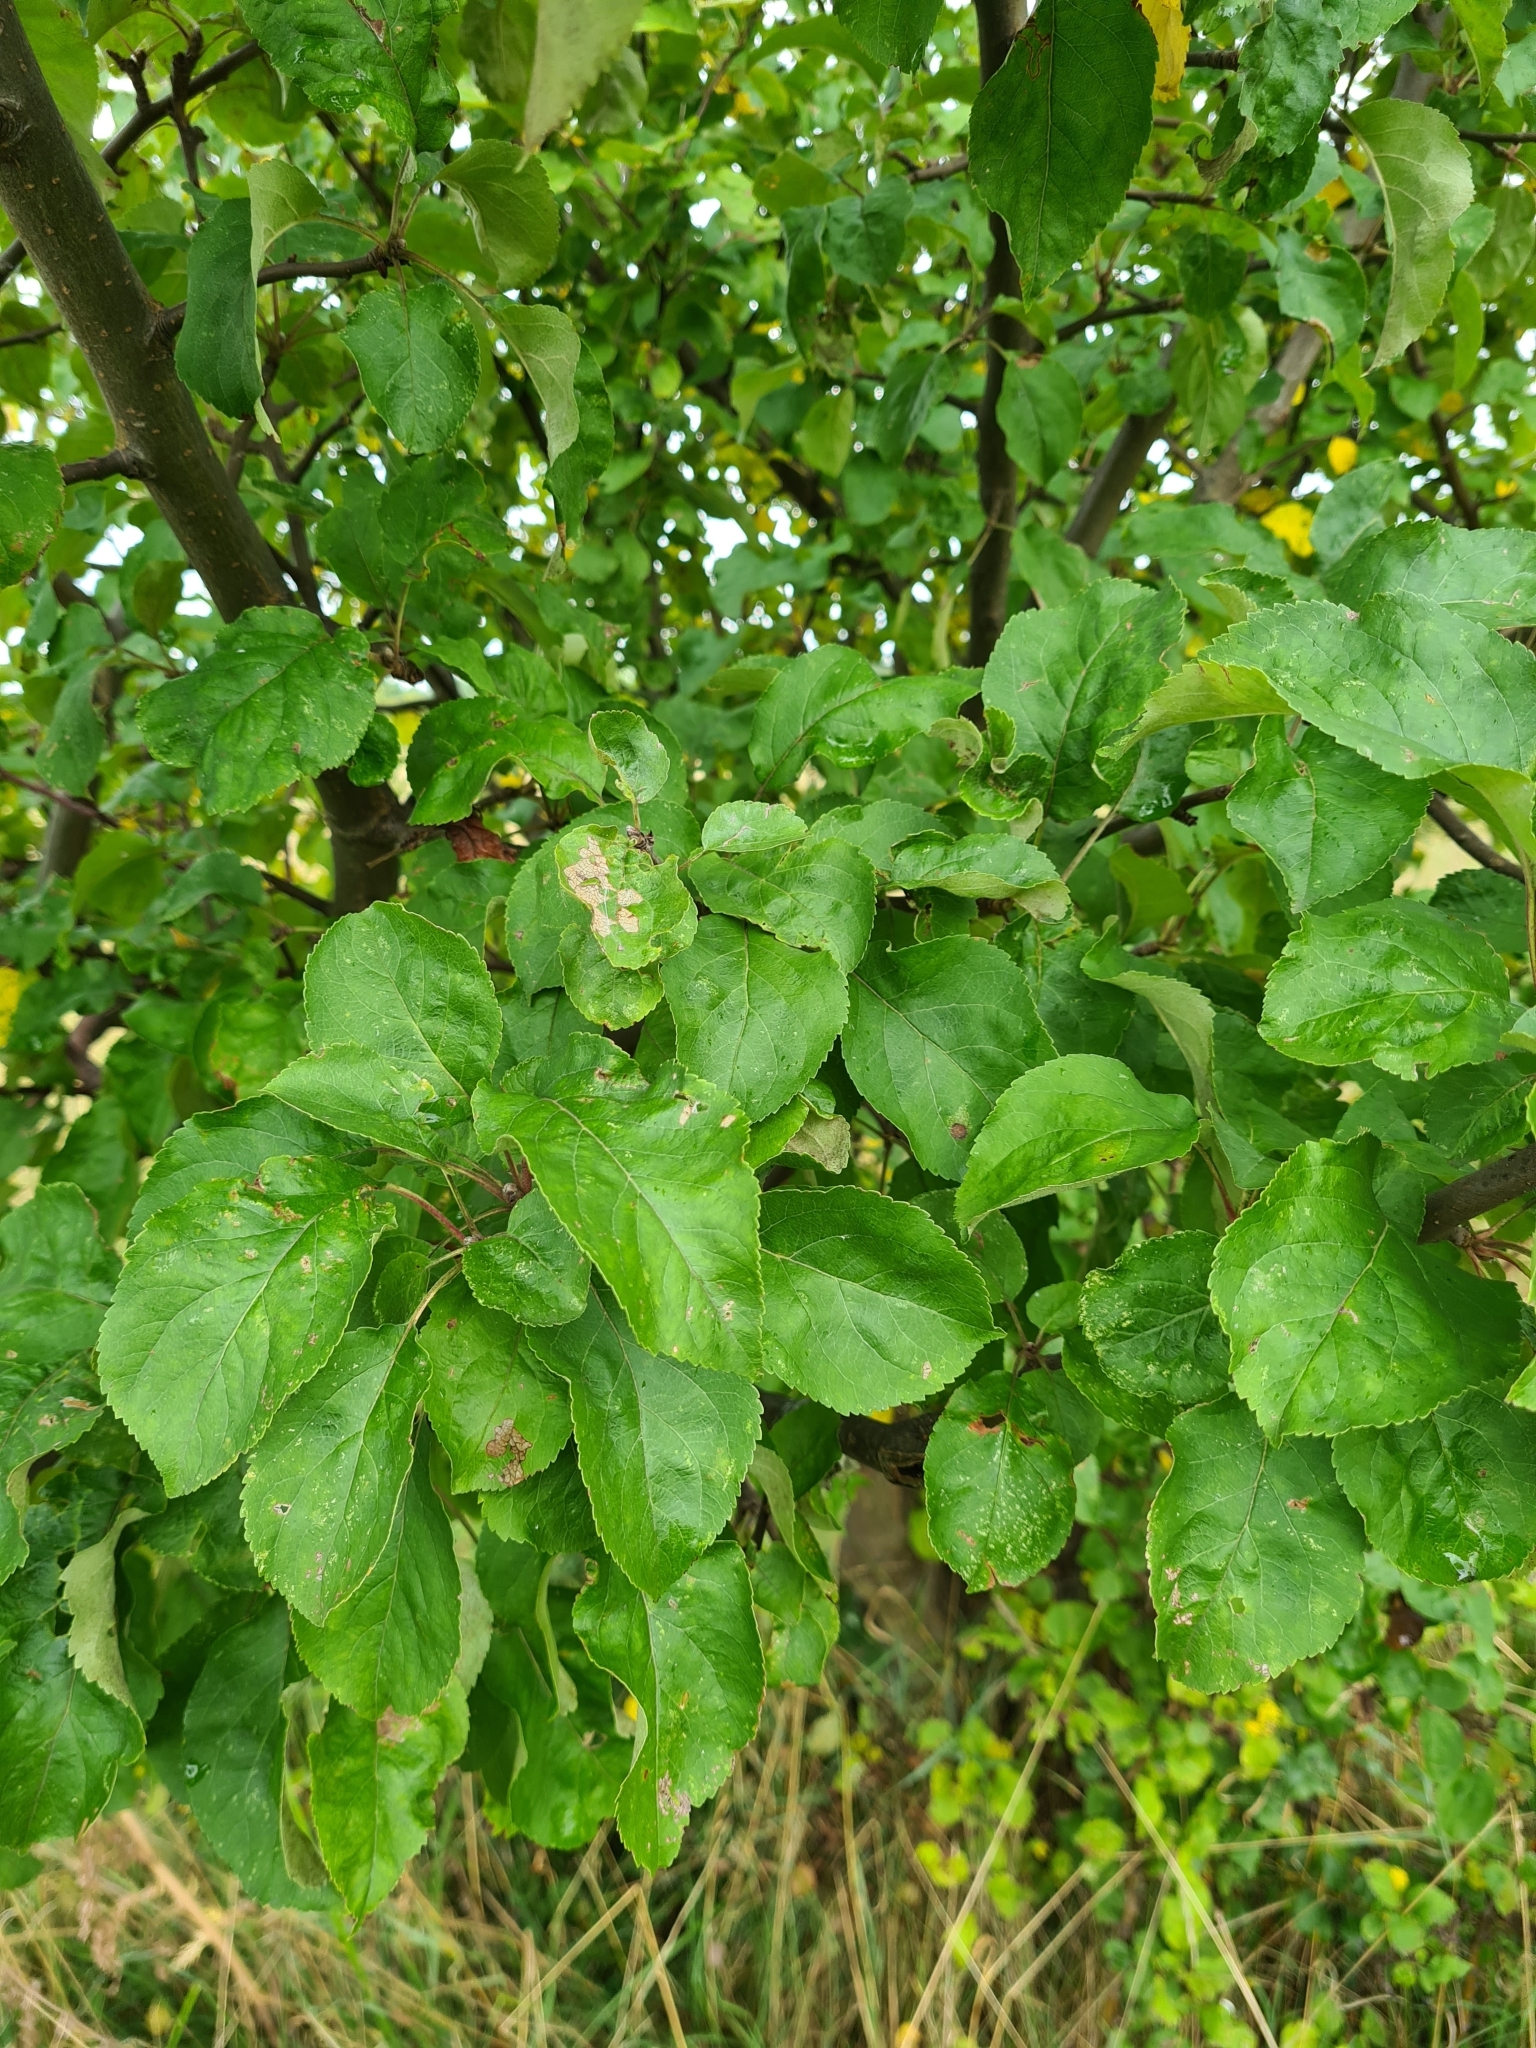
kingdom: Plantae
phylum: Tracheophyta
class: Magnoliopsida
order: Rosales
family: Rosaceae
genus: Malus
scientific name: Malus domestica
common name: Apple
